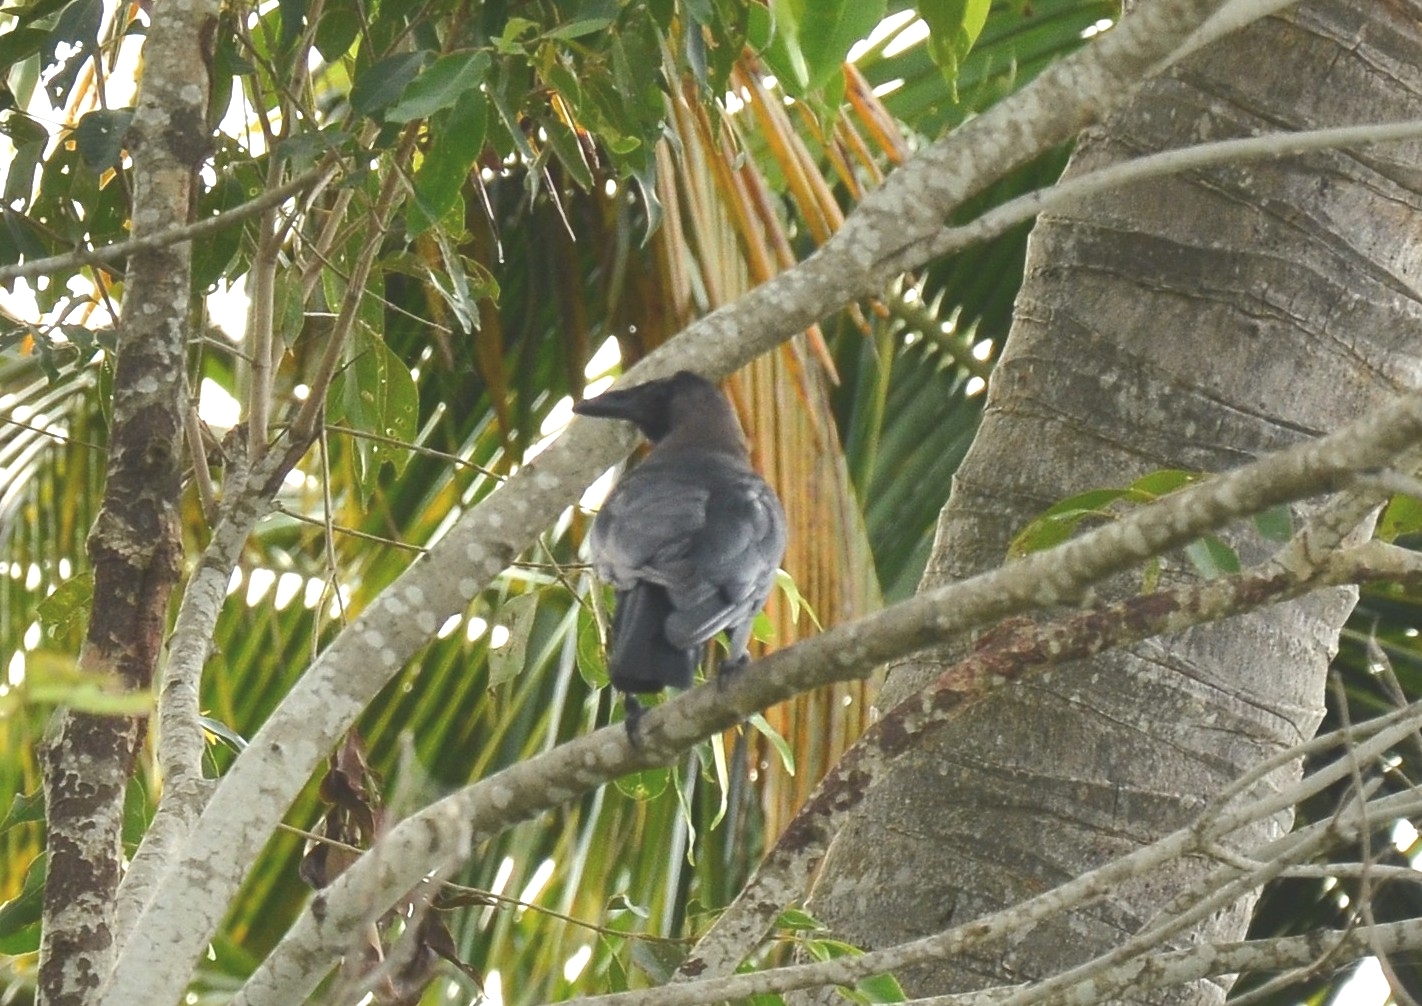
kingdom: Animalia
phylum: Chordata
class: Aves
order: Passeriformes
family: Corvidae
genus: Corvus
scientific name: Corvus splendens
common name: House crow
